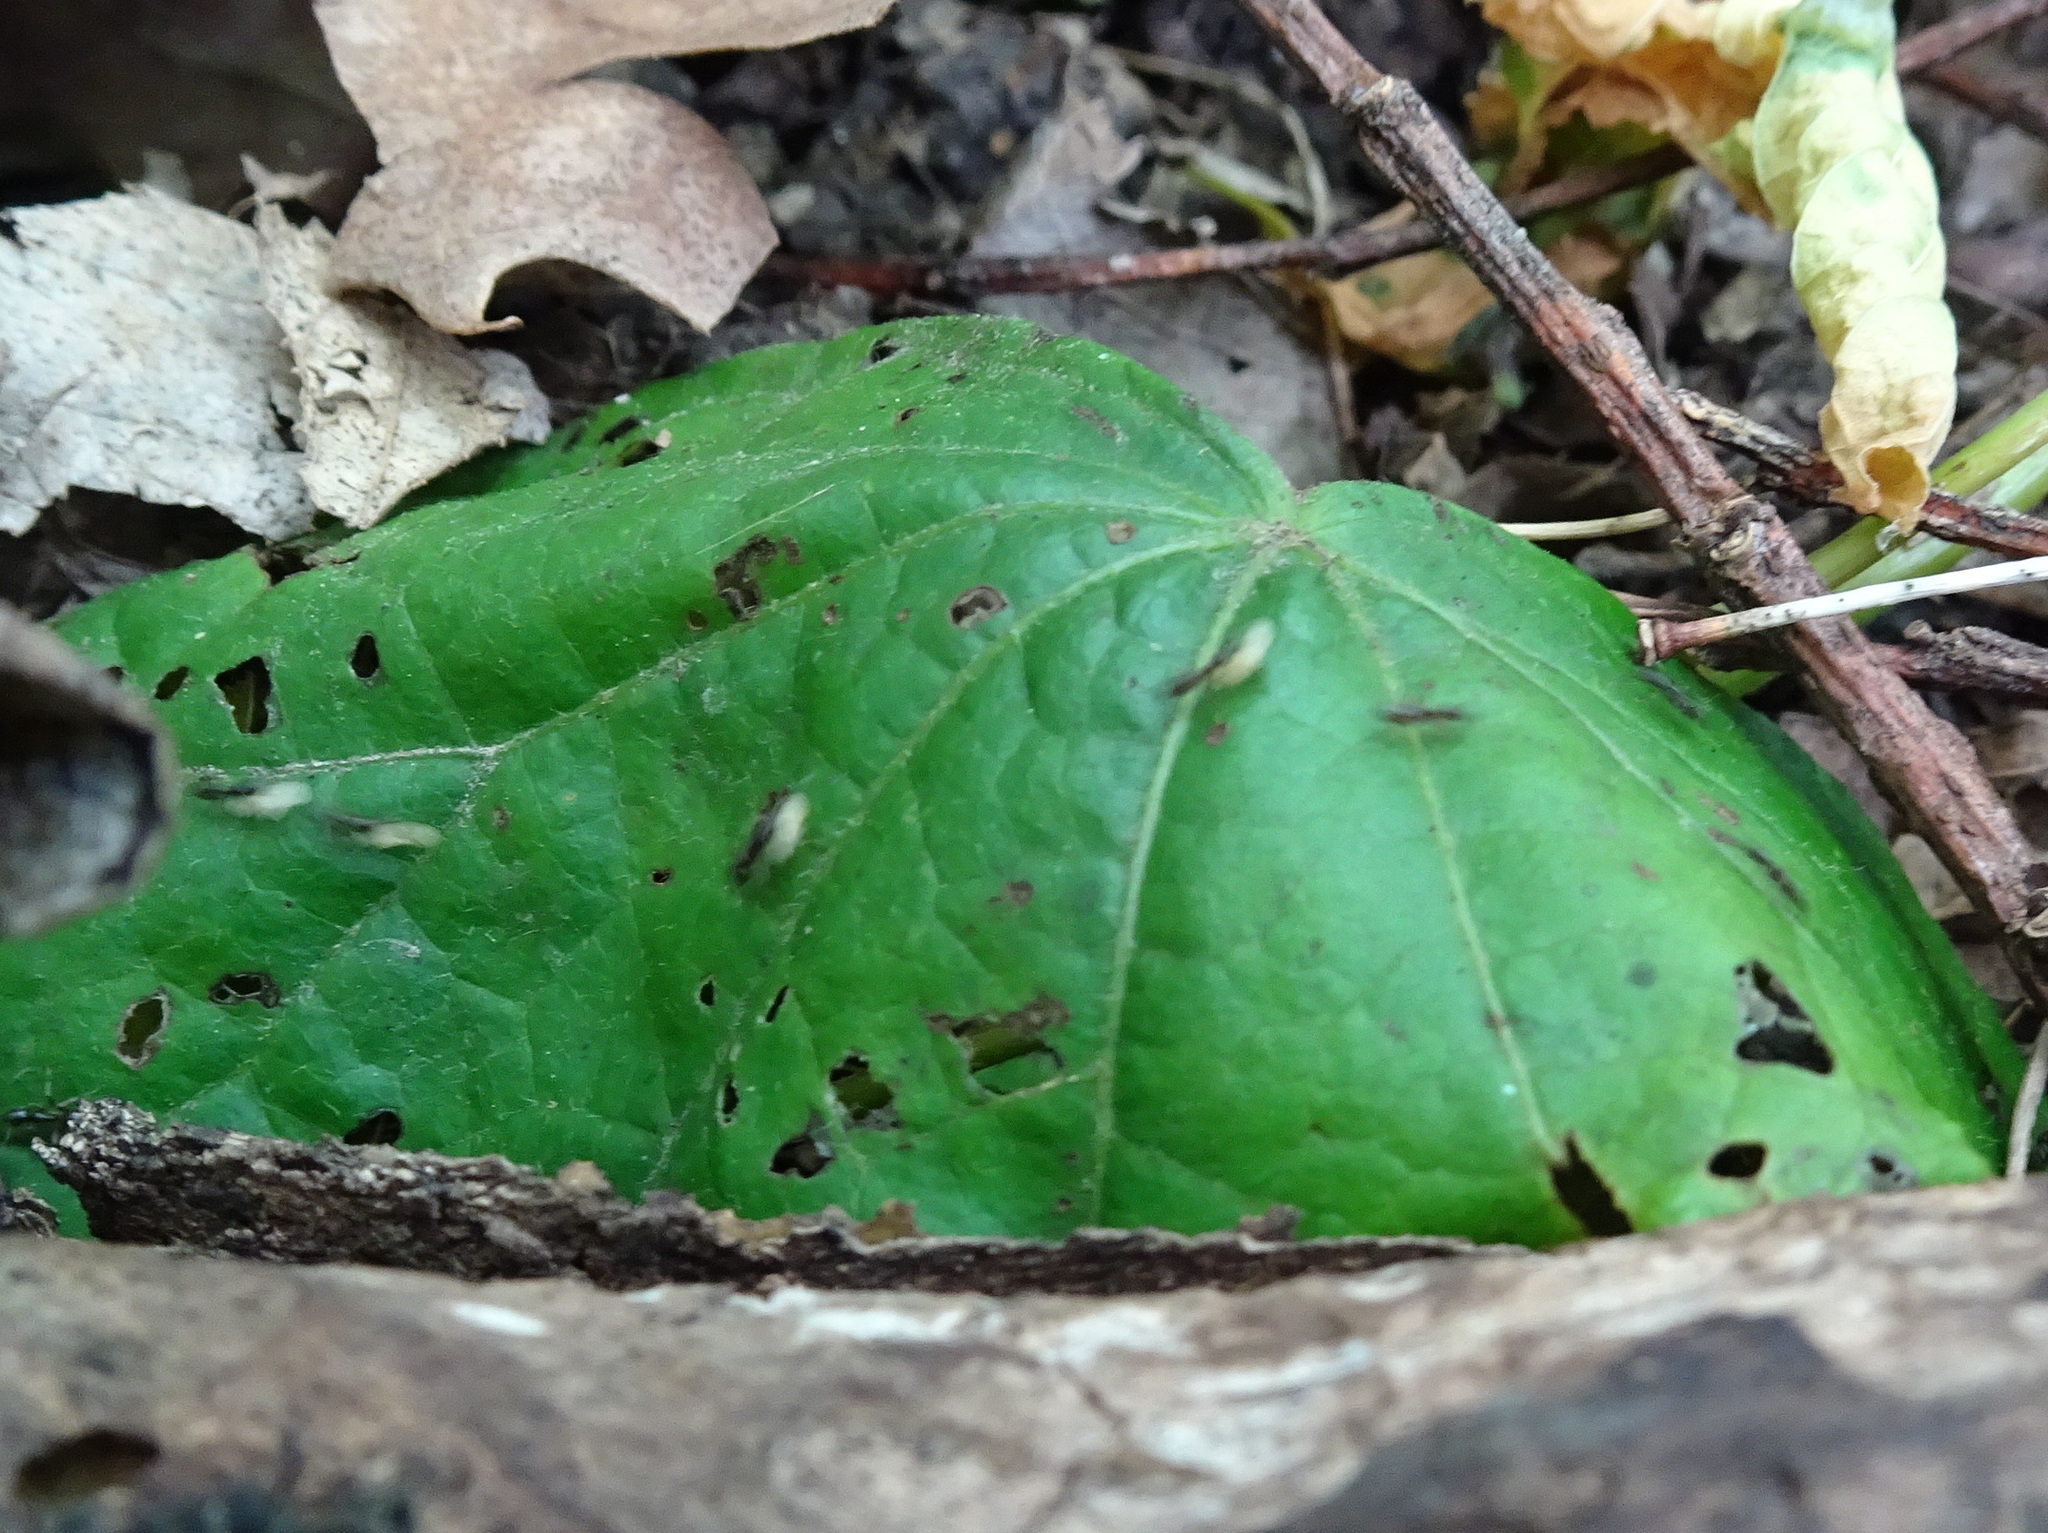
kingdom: Animalia
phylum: Arthropoda
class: Insecta
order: Hymenoptera
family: Formicidae
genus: Tapinoma
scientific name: Tapinoma sessile
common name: Odorous house ant
